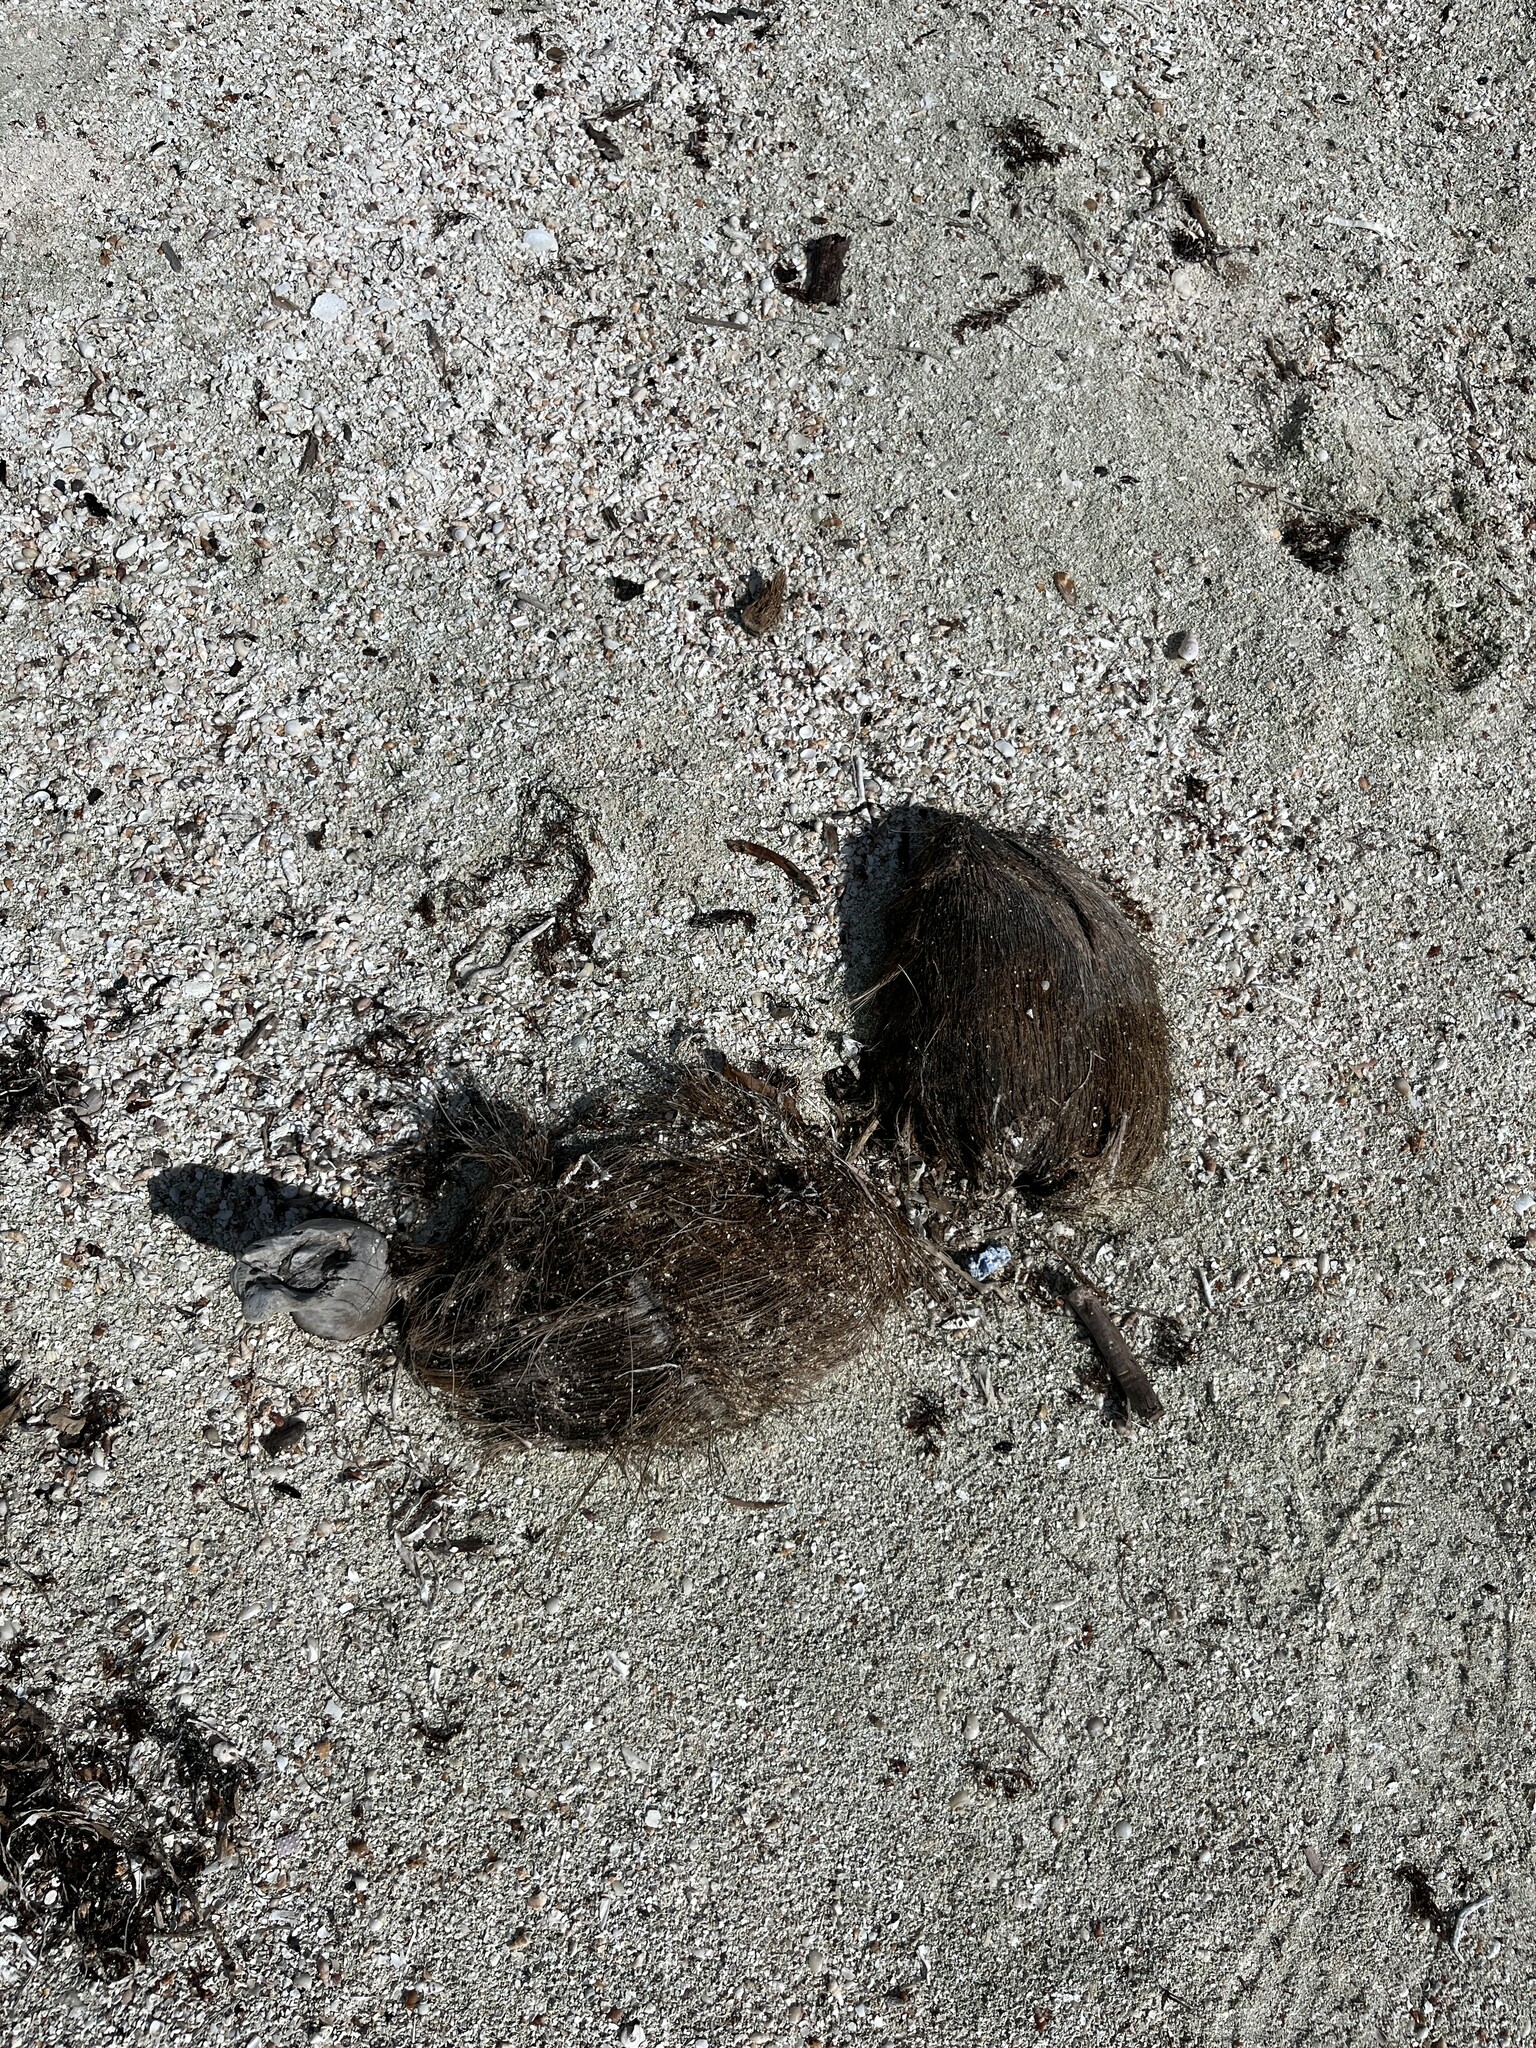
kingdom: Plantae
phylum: Tracheophyta
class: Liliopsida
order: Arecales
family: Arecaceae
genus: Cocos
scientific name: Cocos nucifera
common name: Coconut palm
